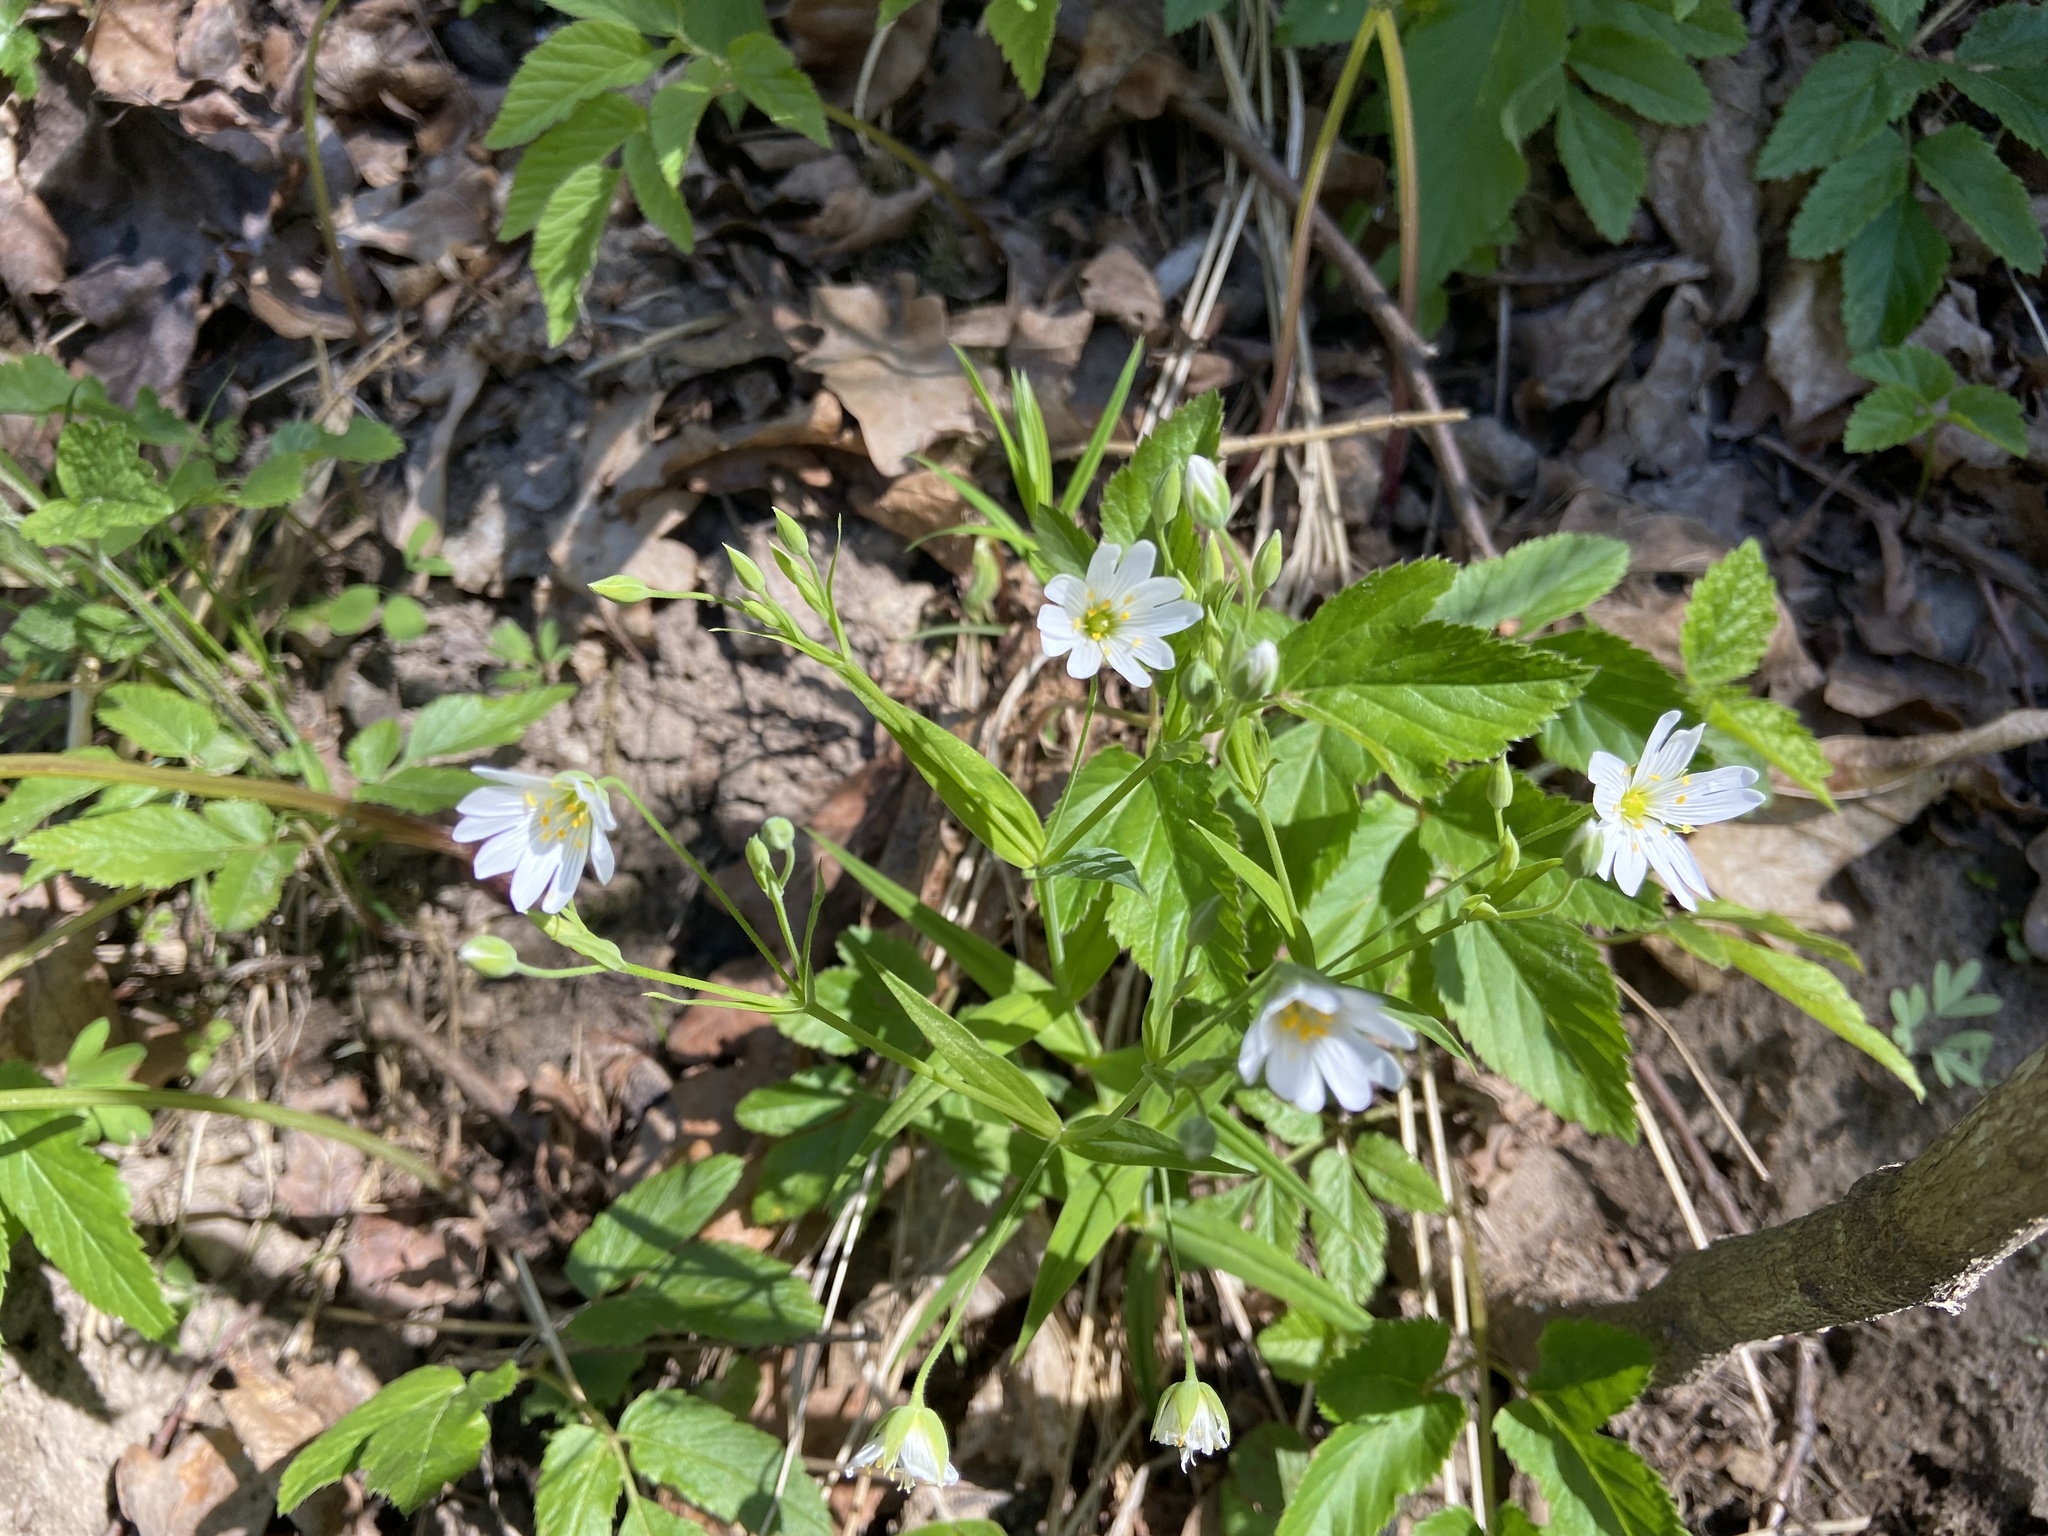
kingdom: Plantae
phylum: Tracheophyta
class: Magnoliopsida
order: Caryophyllales
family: Caryophyllaceae
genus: Rabelera
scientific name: Rabelera holostea
